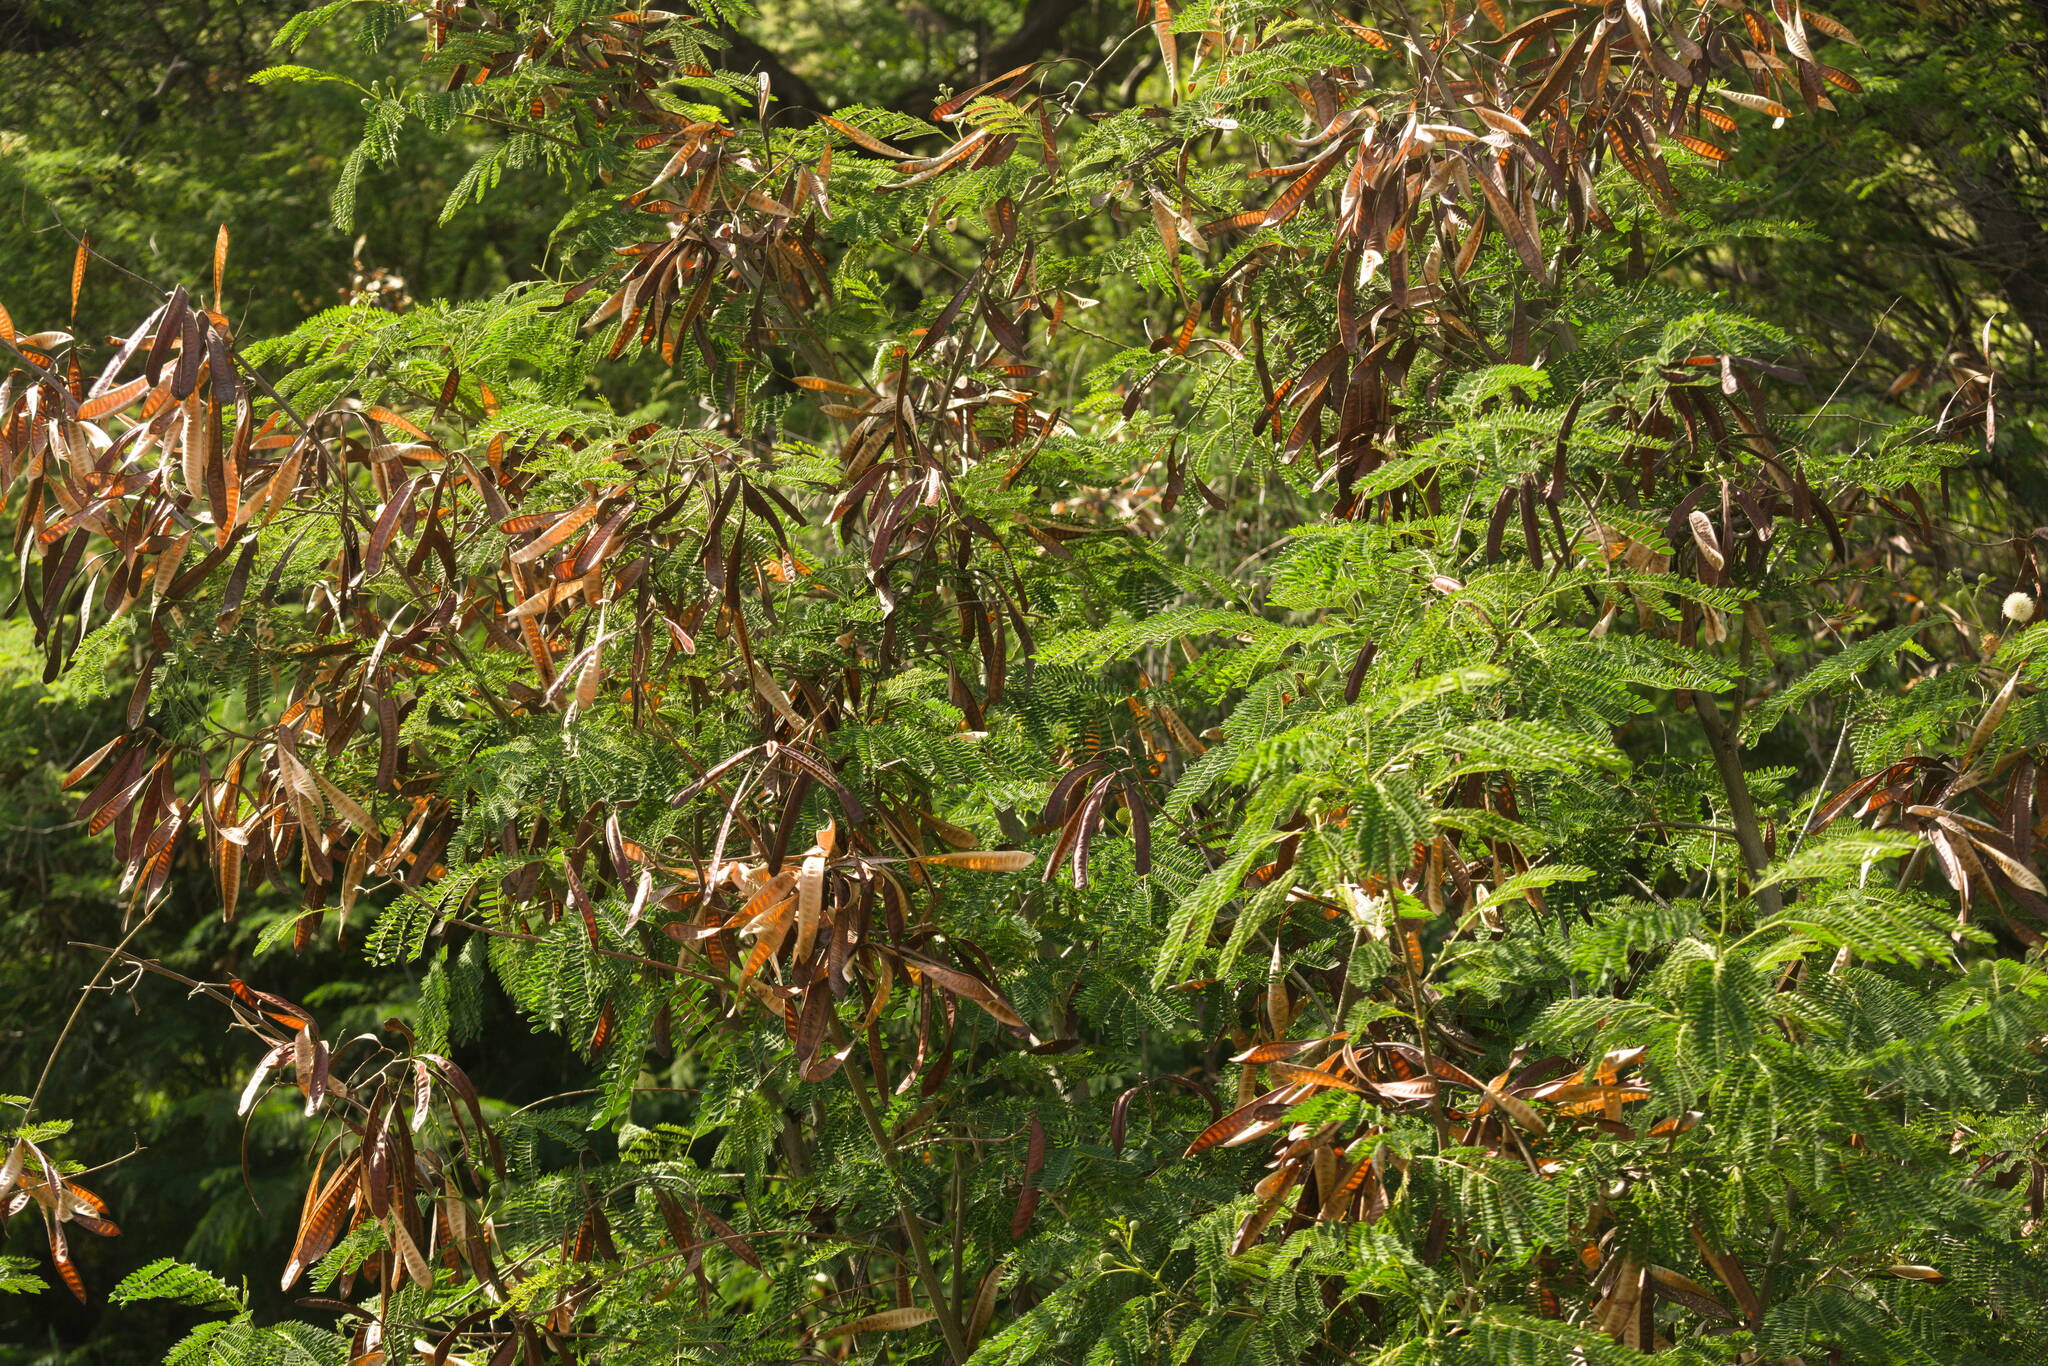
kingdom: Plantae
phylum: Tracheophyta
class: Magnoliopsida
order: Fabales
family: Fabaceae
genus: Leucaena
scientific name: Leucaena leucocephala
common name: White leadtree
